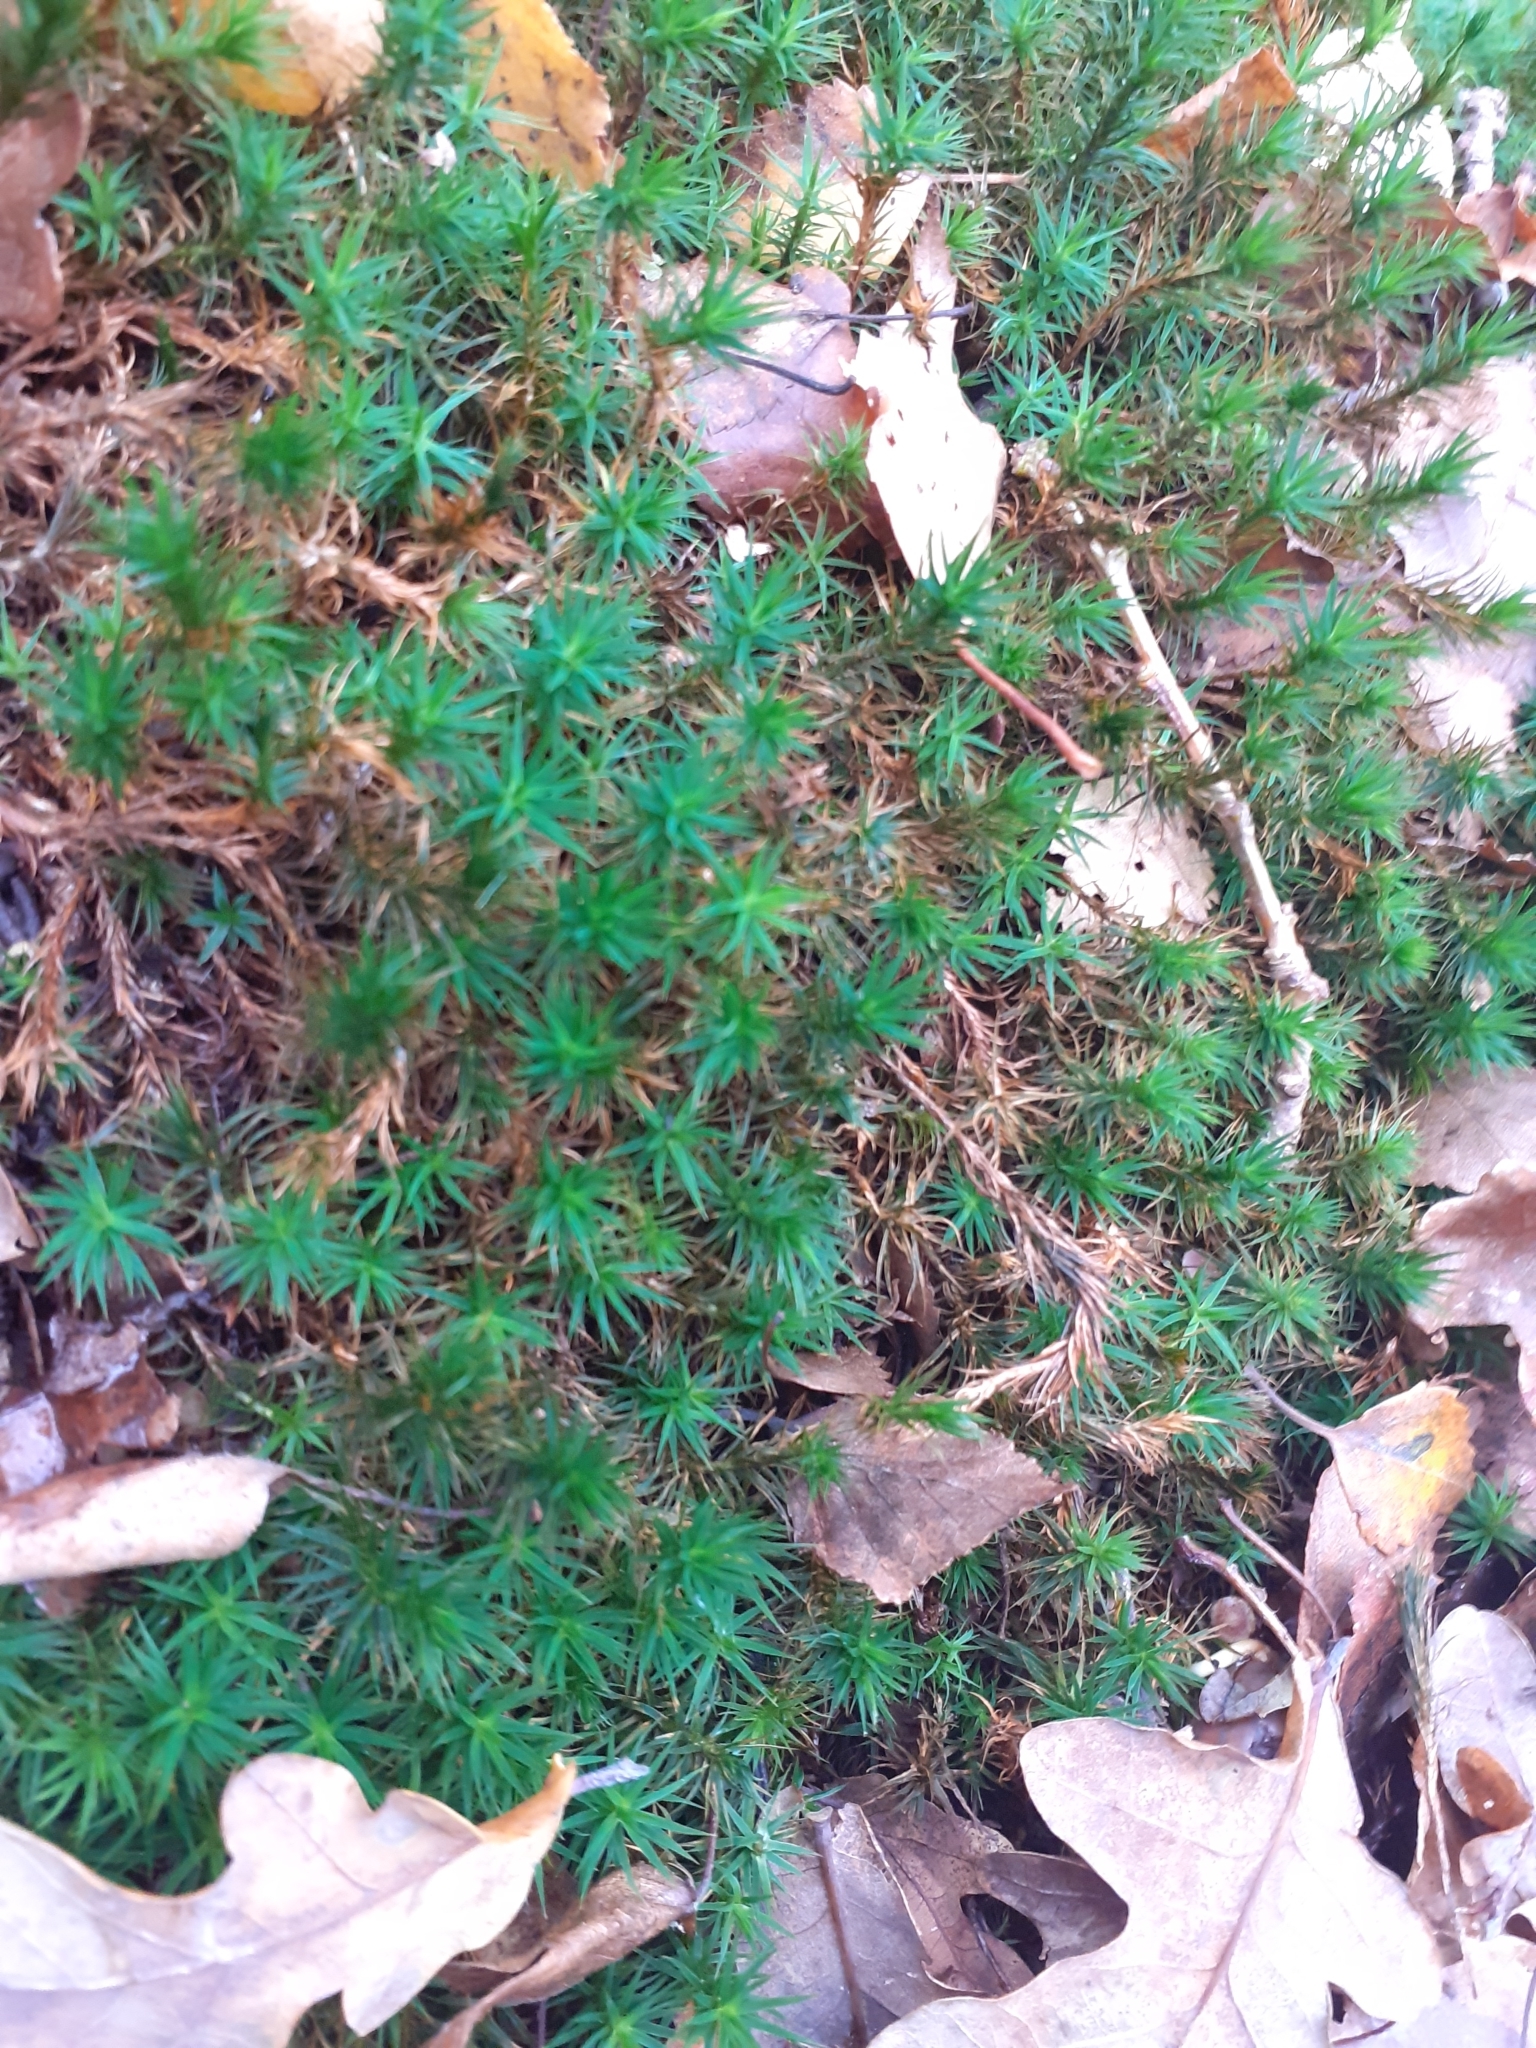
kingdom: Plantae
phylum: Bryophyta
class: Polytrichopsida
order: Polytrichales
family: Polytrichaceae
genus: Polytrichum
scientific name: Polytrichum formosum
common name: Bank haircap moss
